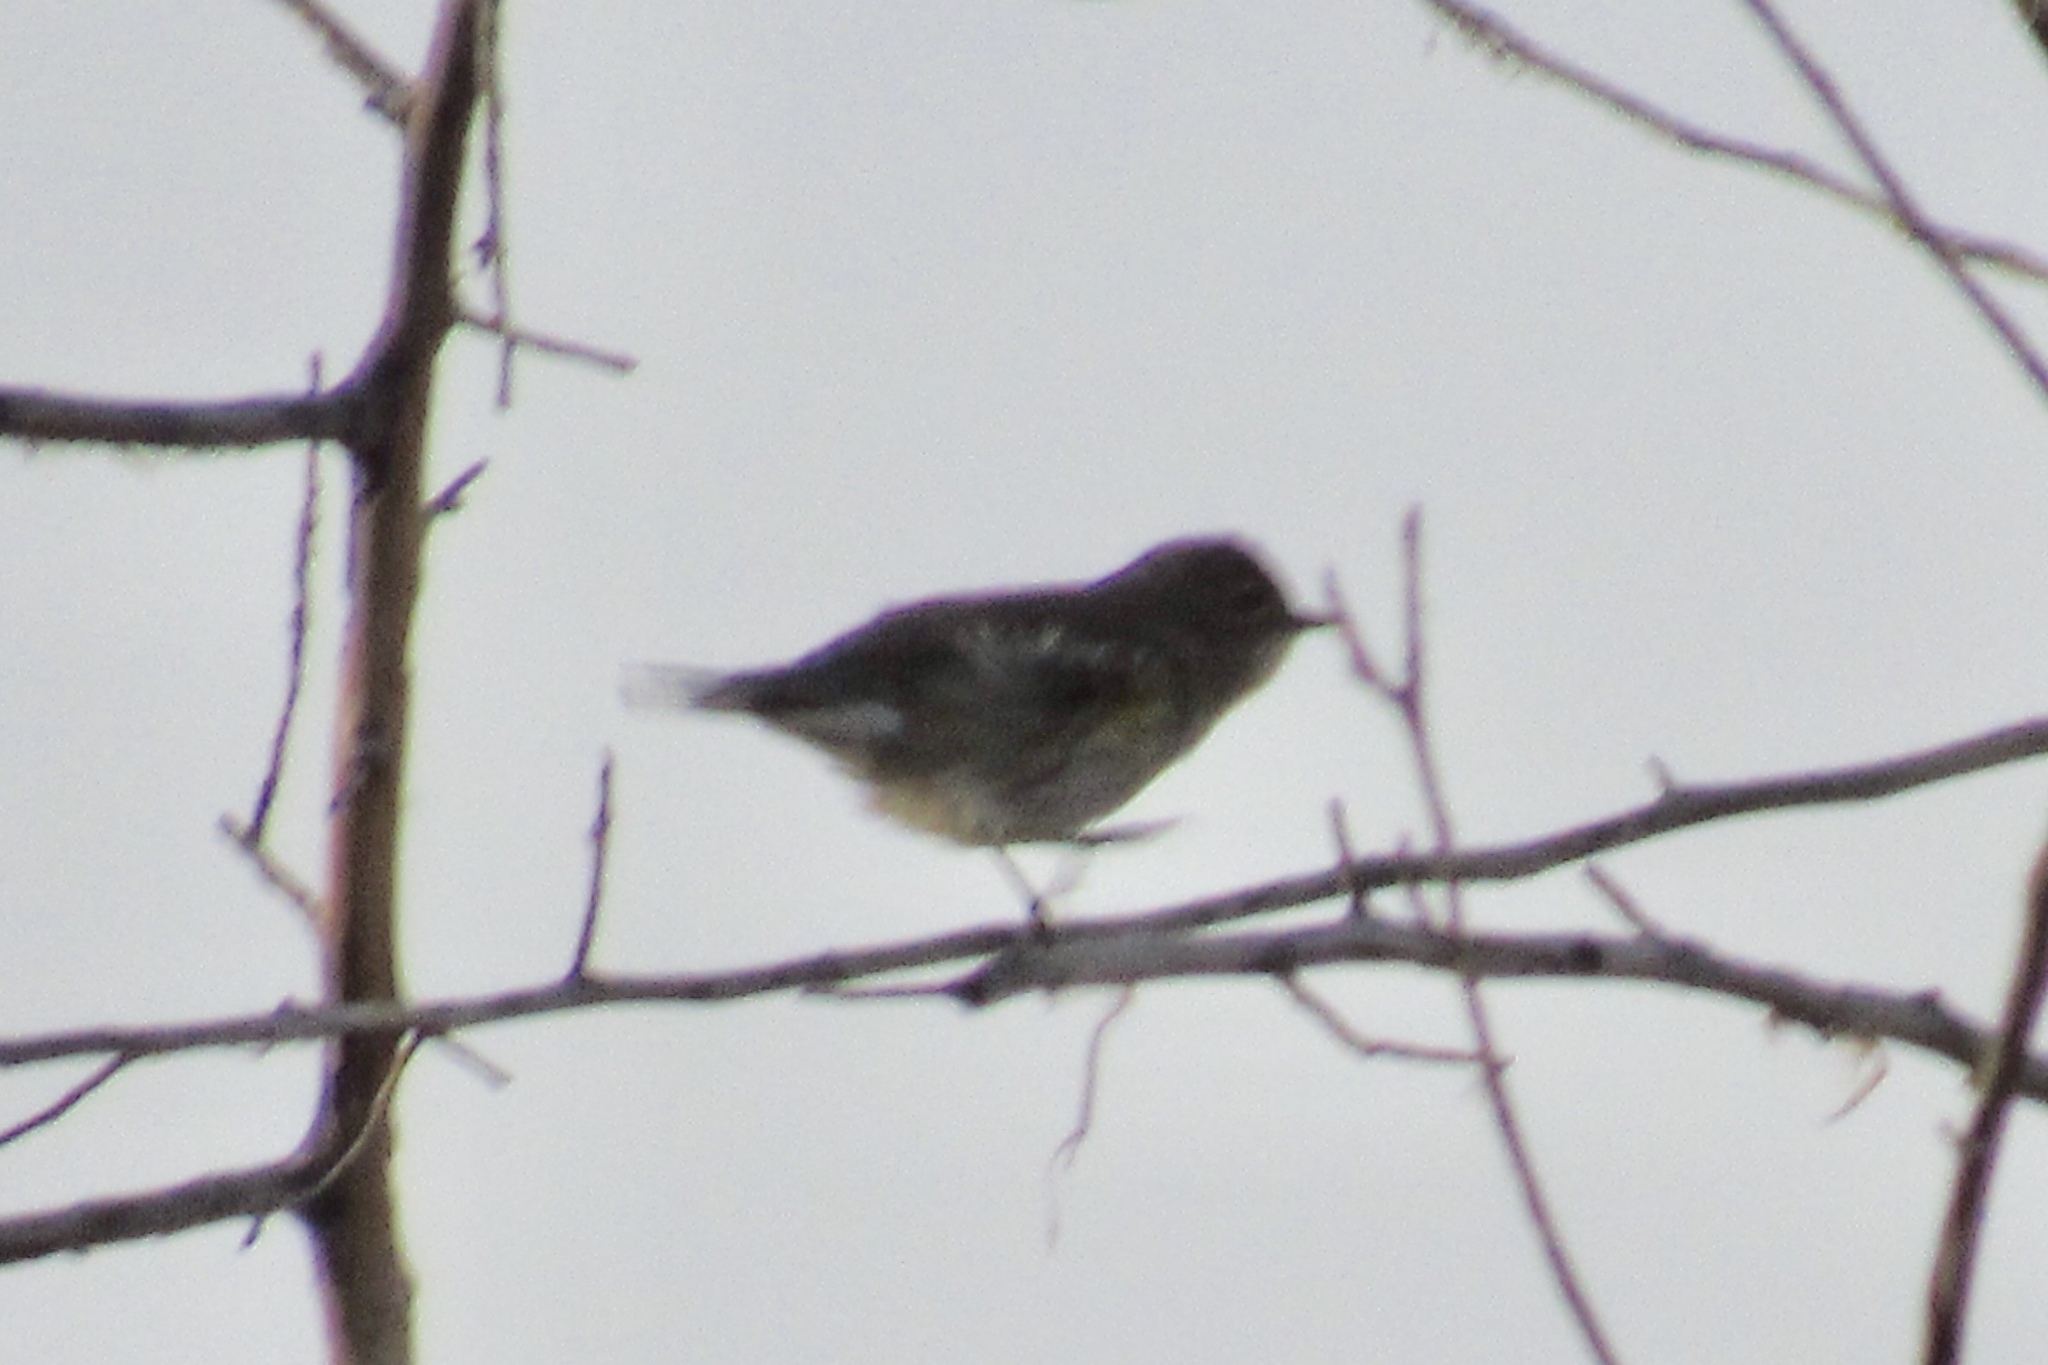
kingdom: Animalia
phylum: Chordata
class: Aves
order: Passeriformes
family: Parulidae
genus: Setophaga
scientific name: Setophaga coronata
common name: Myrtle warbler
